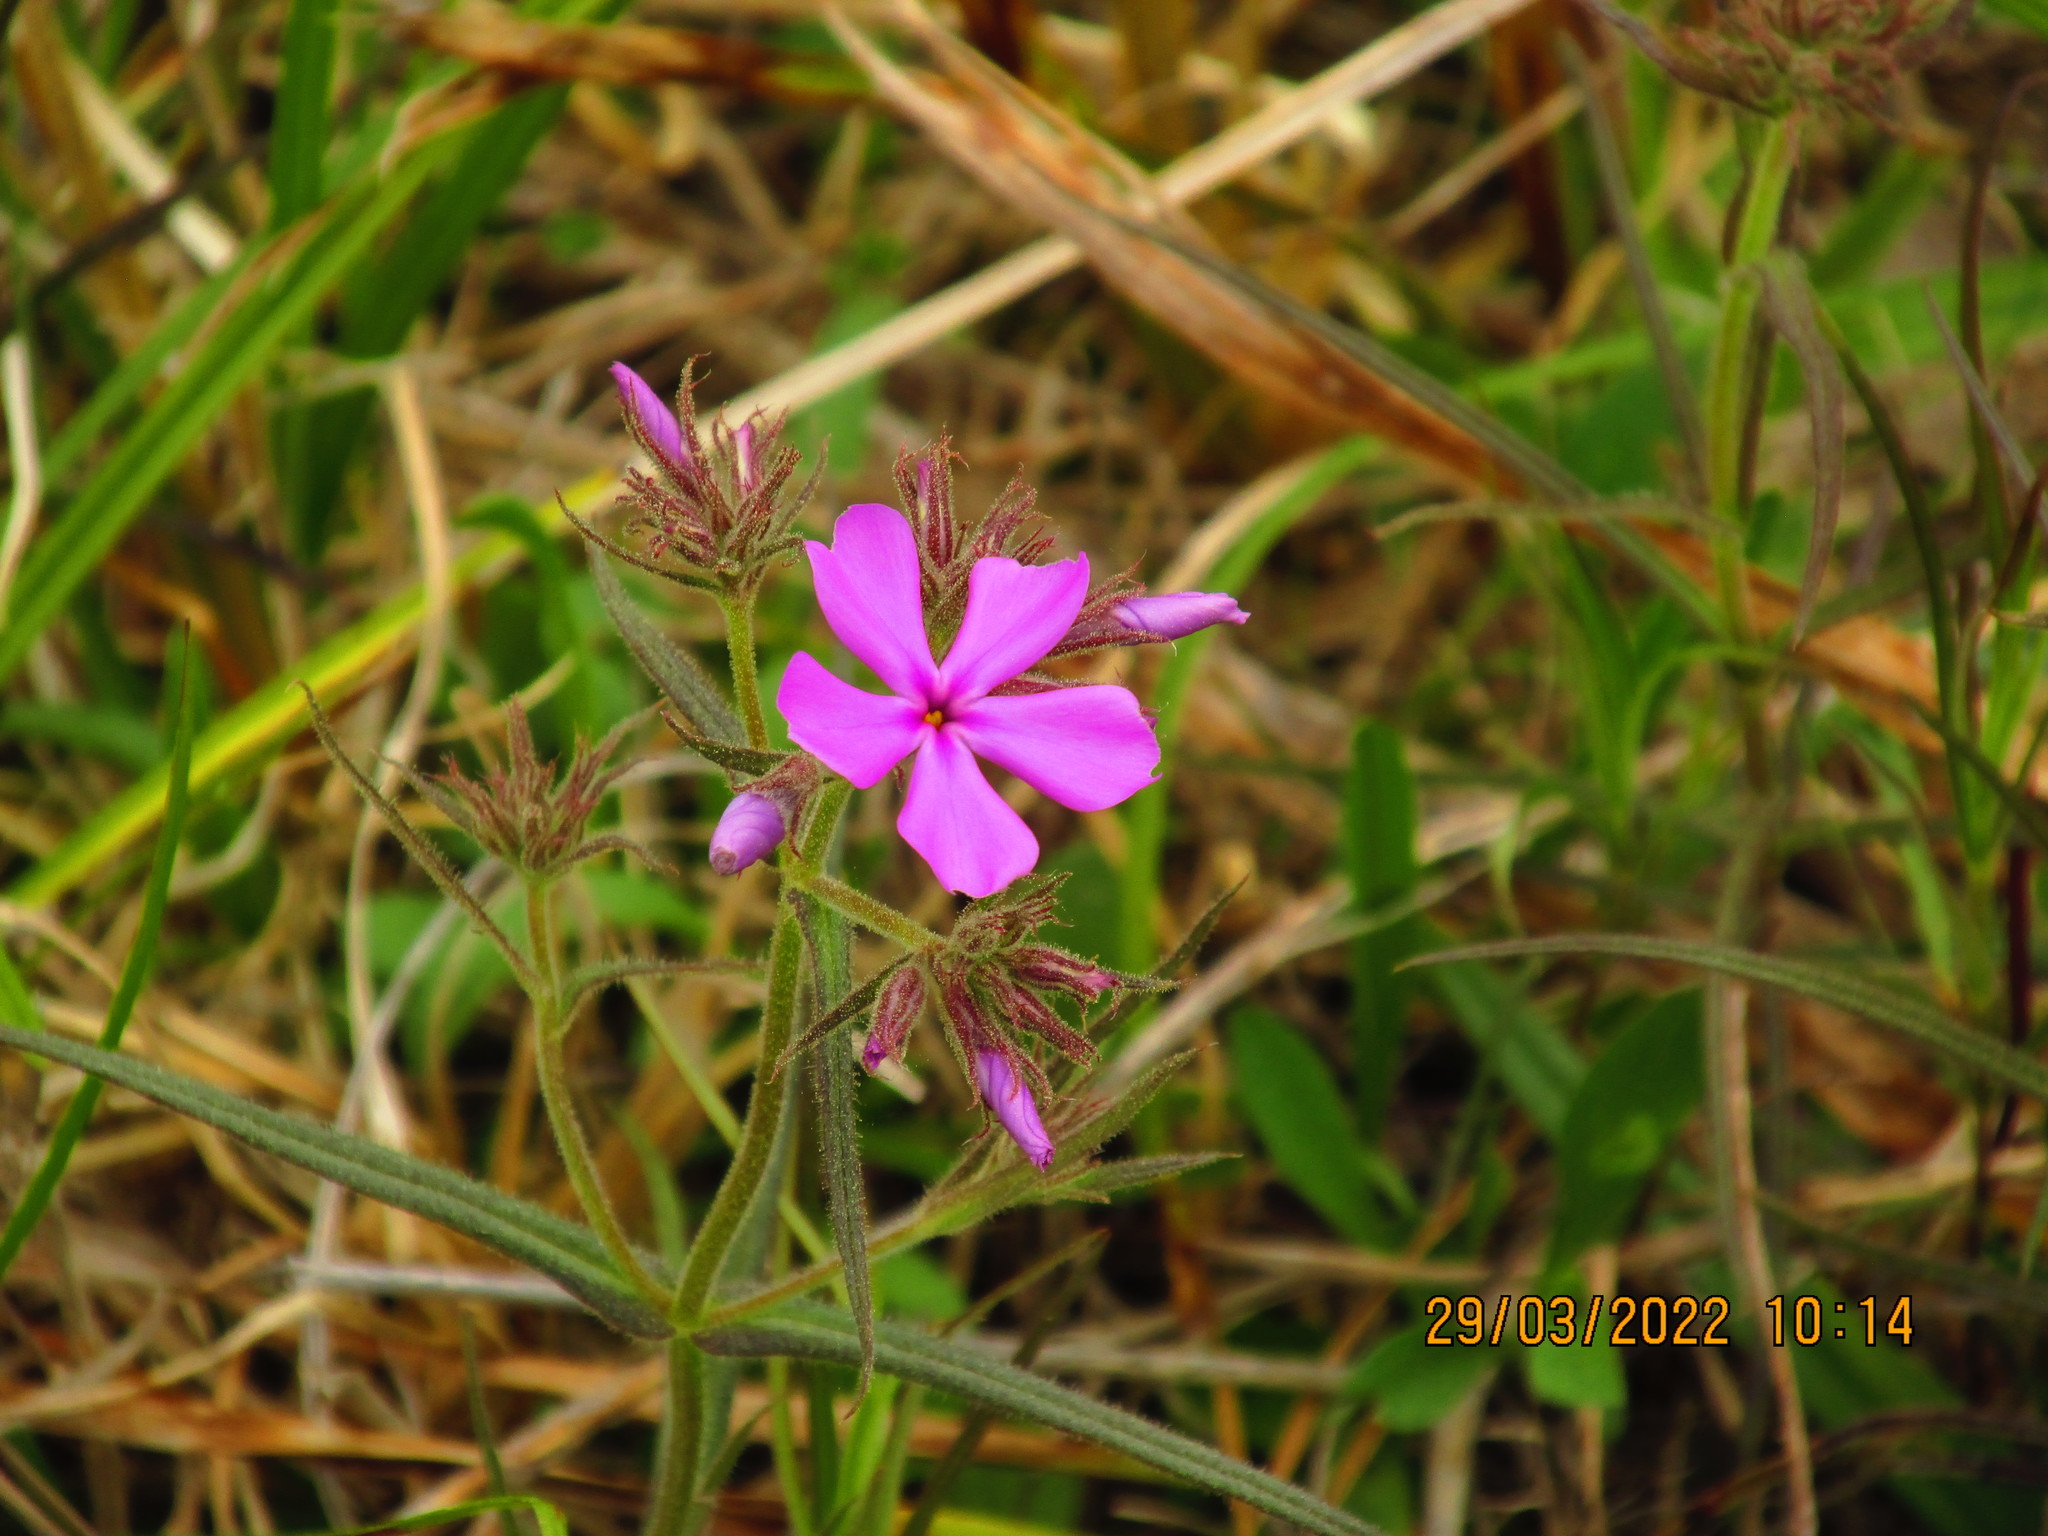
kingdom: Plantae
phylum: Tracheophyta
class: Magnoliopsida
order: Ericales
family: Polemoniaceae
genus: Phlox
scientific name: Phlox pilosa
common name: Prairie phlox
